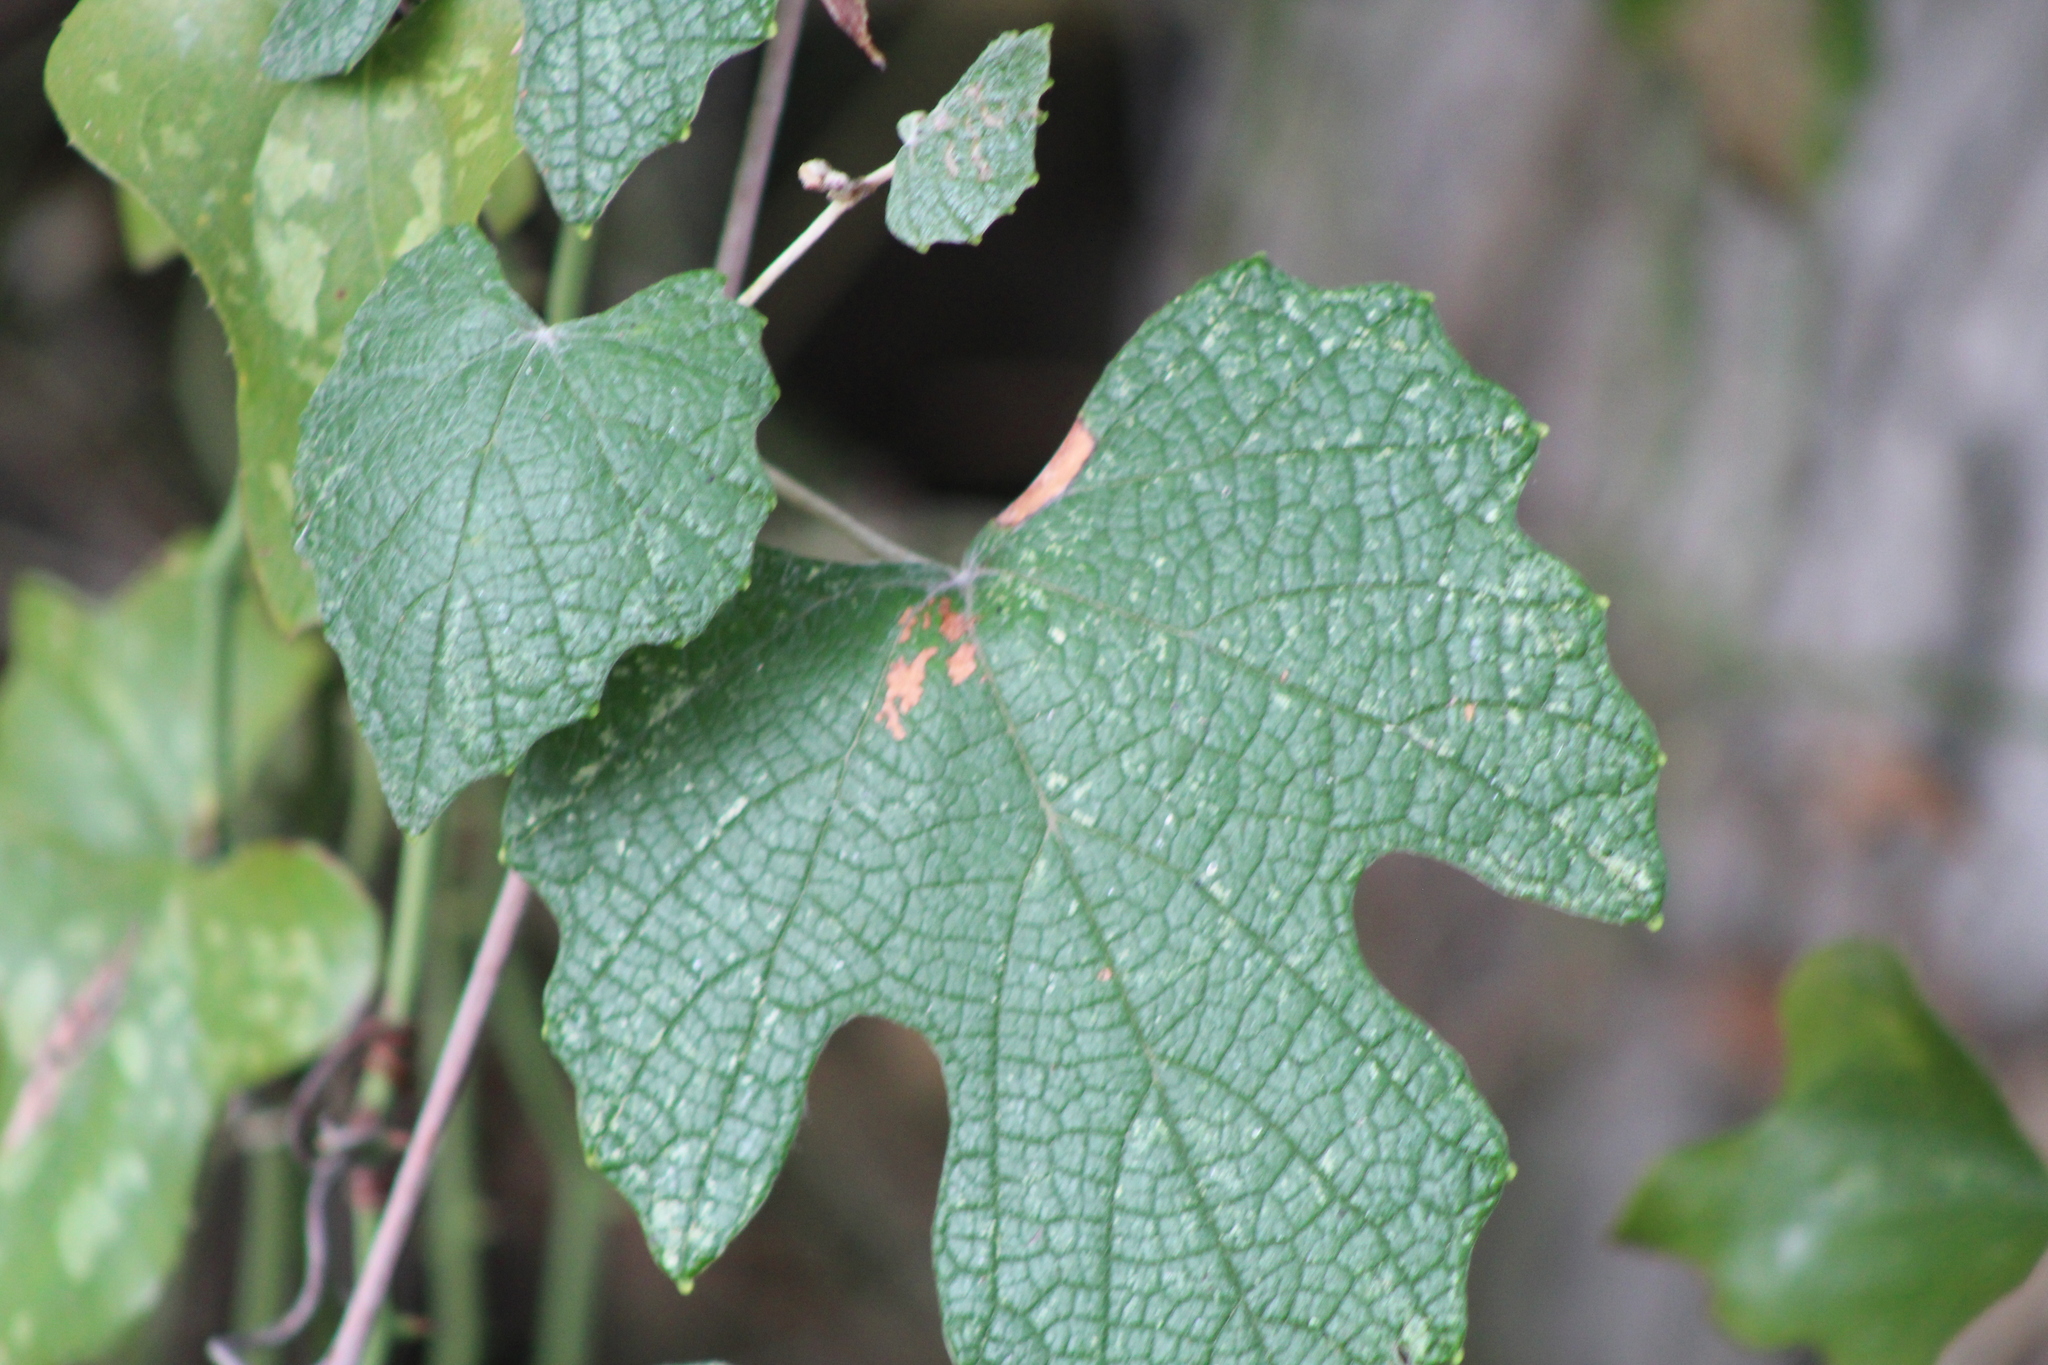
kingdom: Plantae
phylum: Tracheophyta
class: Magnoliopsida
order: Vitales
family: Vitaceae
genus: Vitis
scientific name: Vitis mustangensis
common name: Mustang grape
